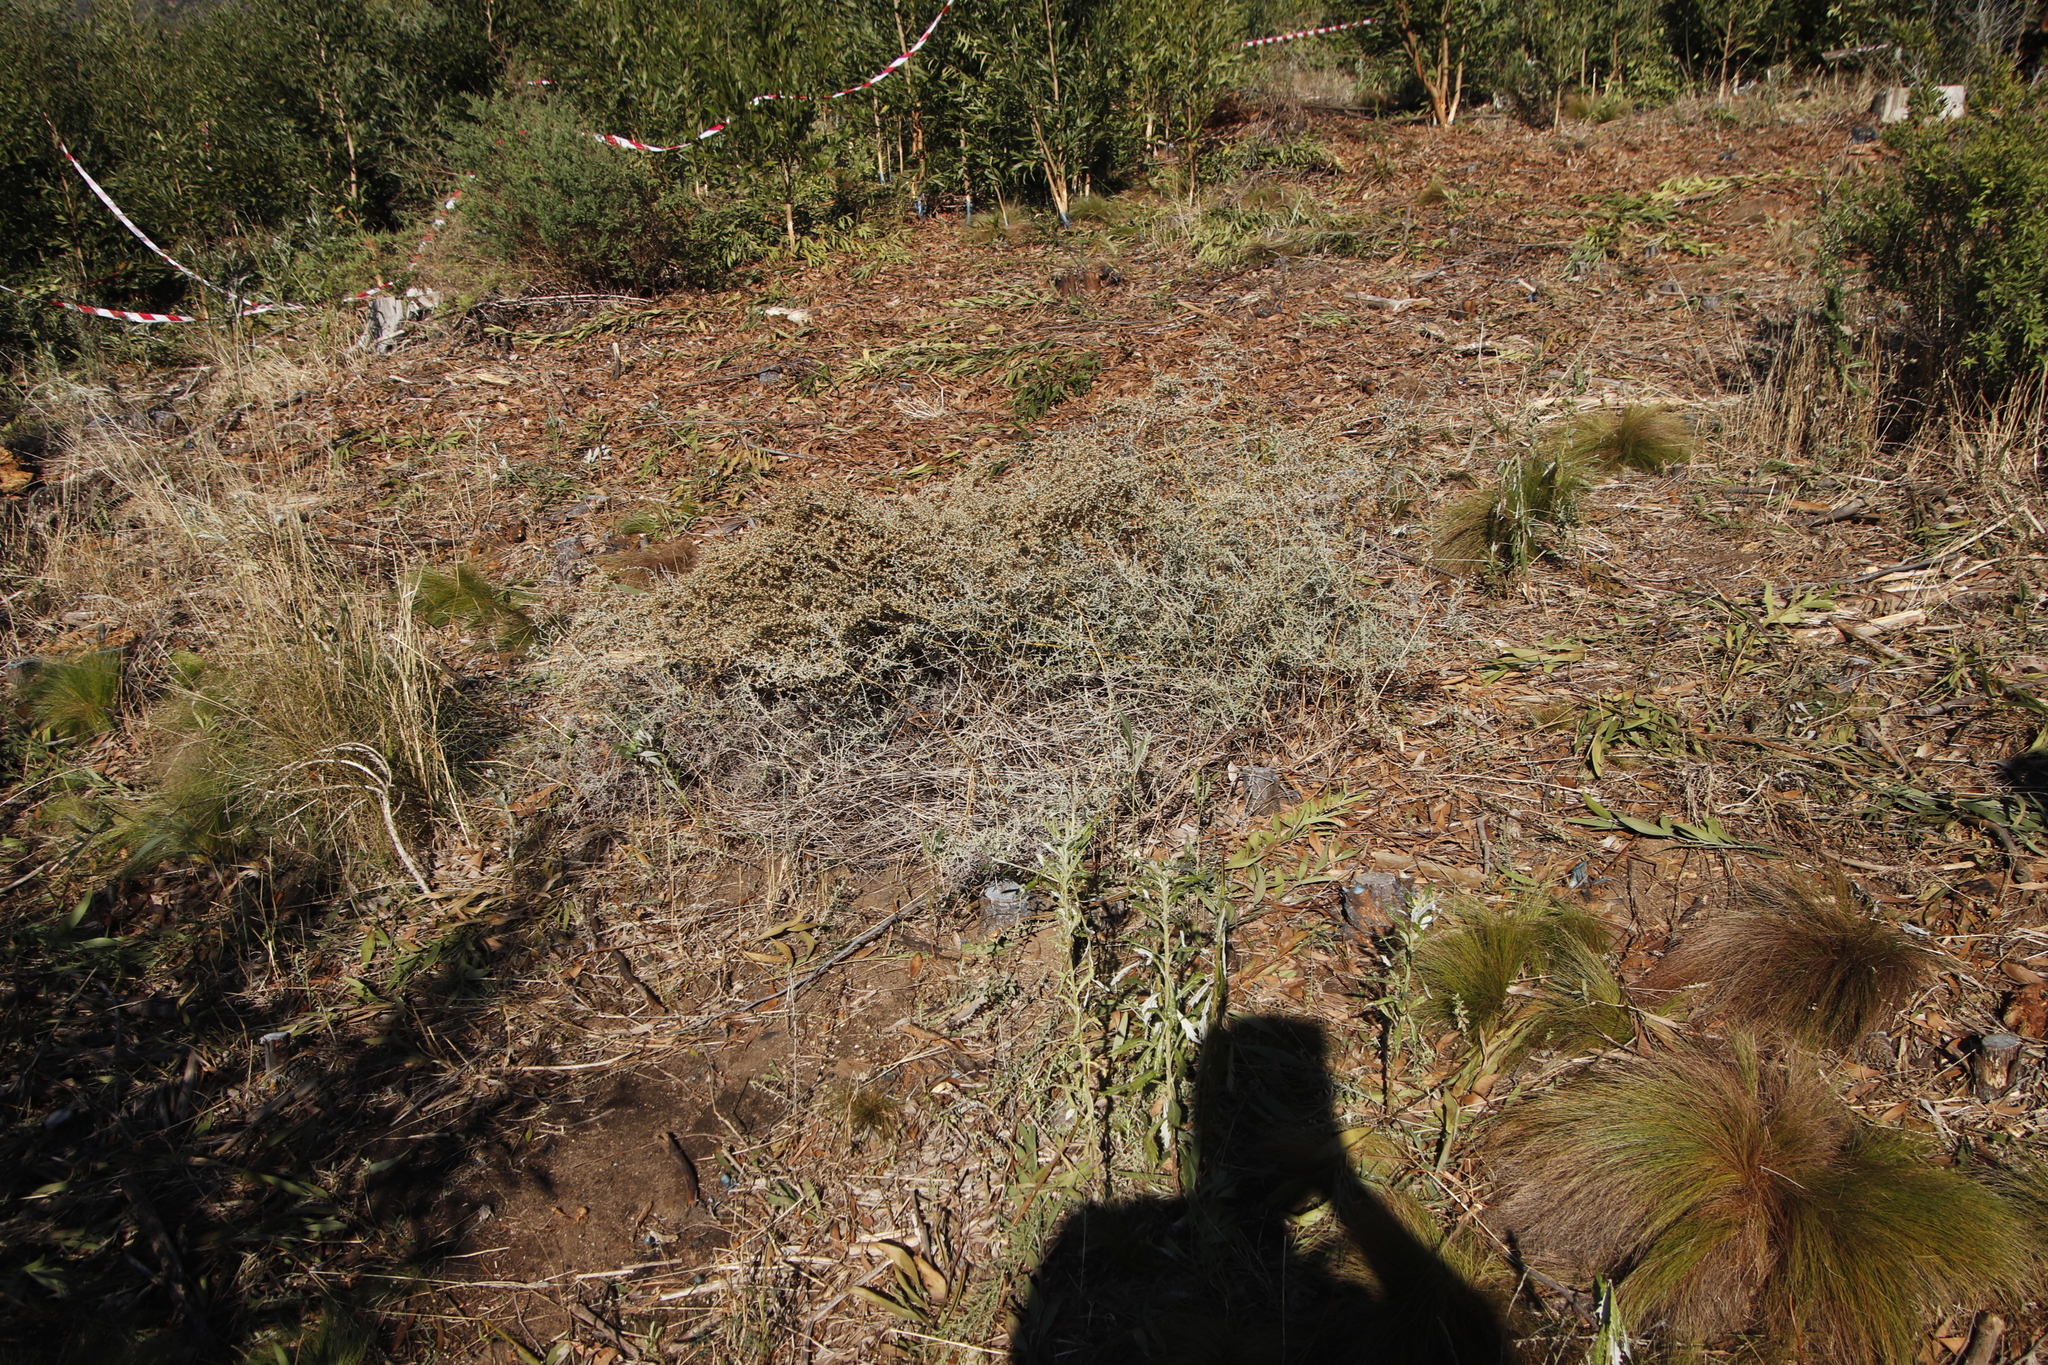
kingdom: Plantae
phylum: Tracheophyta
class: Magnoliopsida
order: Asterales
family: Asteraceae
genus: Seriphium
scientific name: Seriphium plumosum
